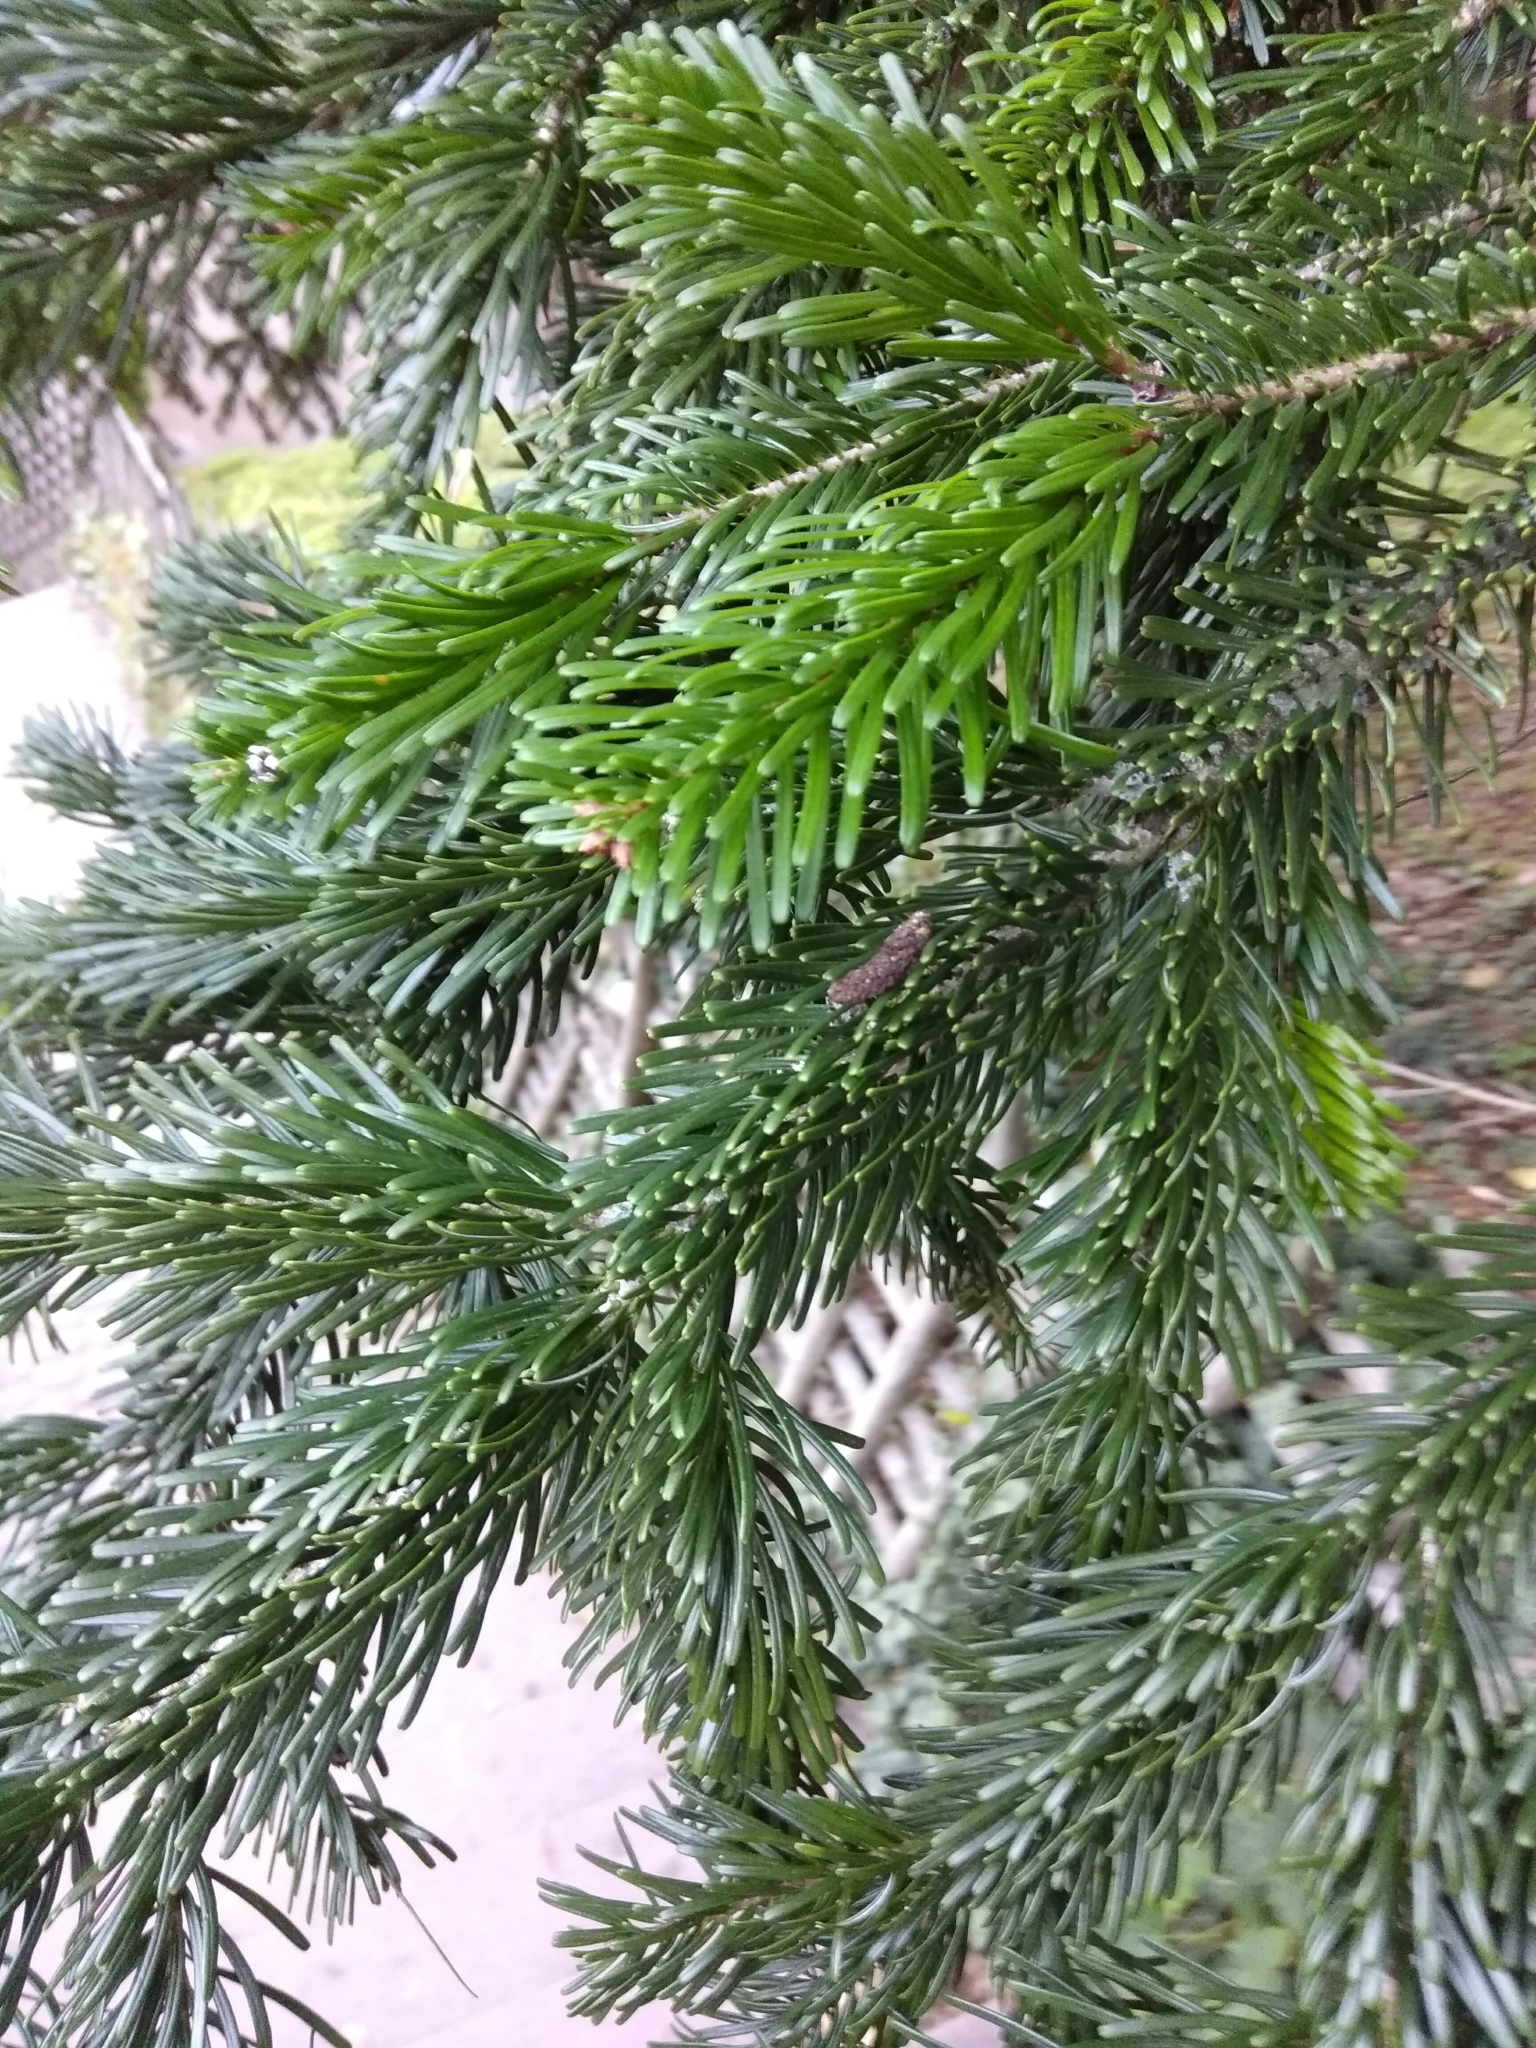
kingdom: Plantae
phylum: Tracheophyta
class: Pinopsida
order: Pinales
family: Pinaceae
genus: Abies
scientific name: Abies nordmanniana
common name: Caucasian fir
